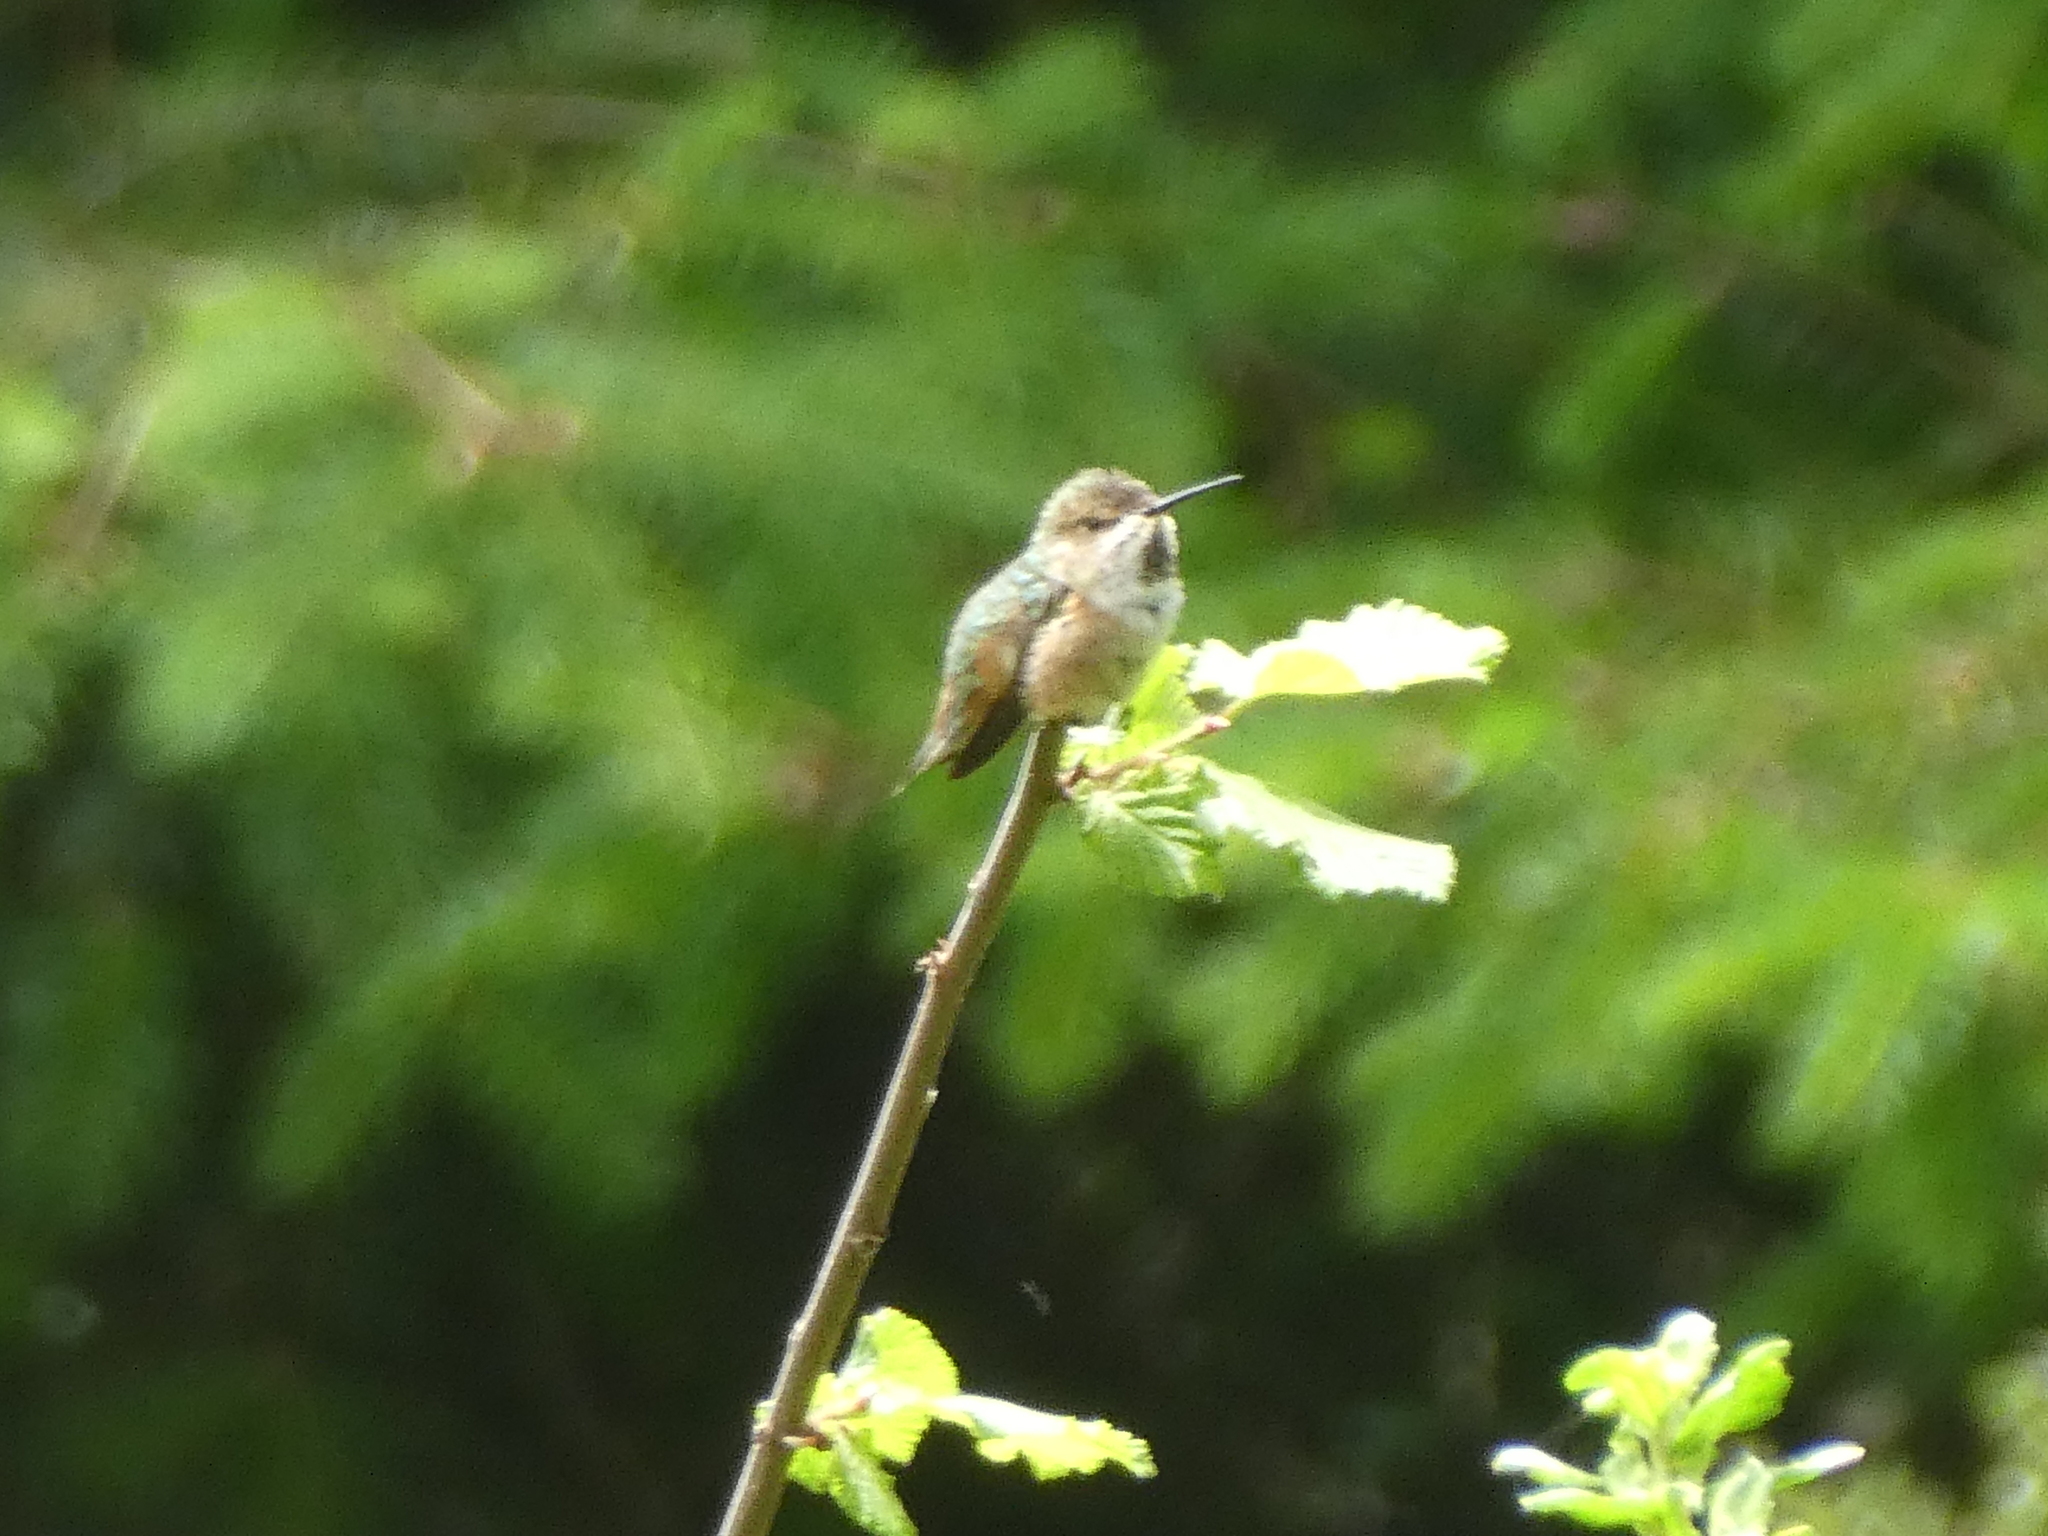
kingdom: Animalia
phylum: Chordata
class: Aves
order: Apodiformes
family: Trochilidae
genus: Selasphorus
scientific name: Selasphorus
